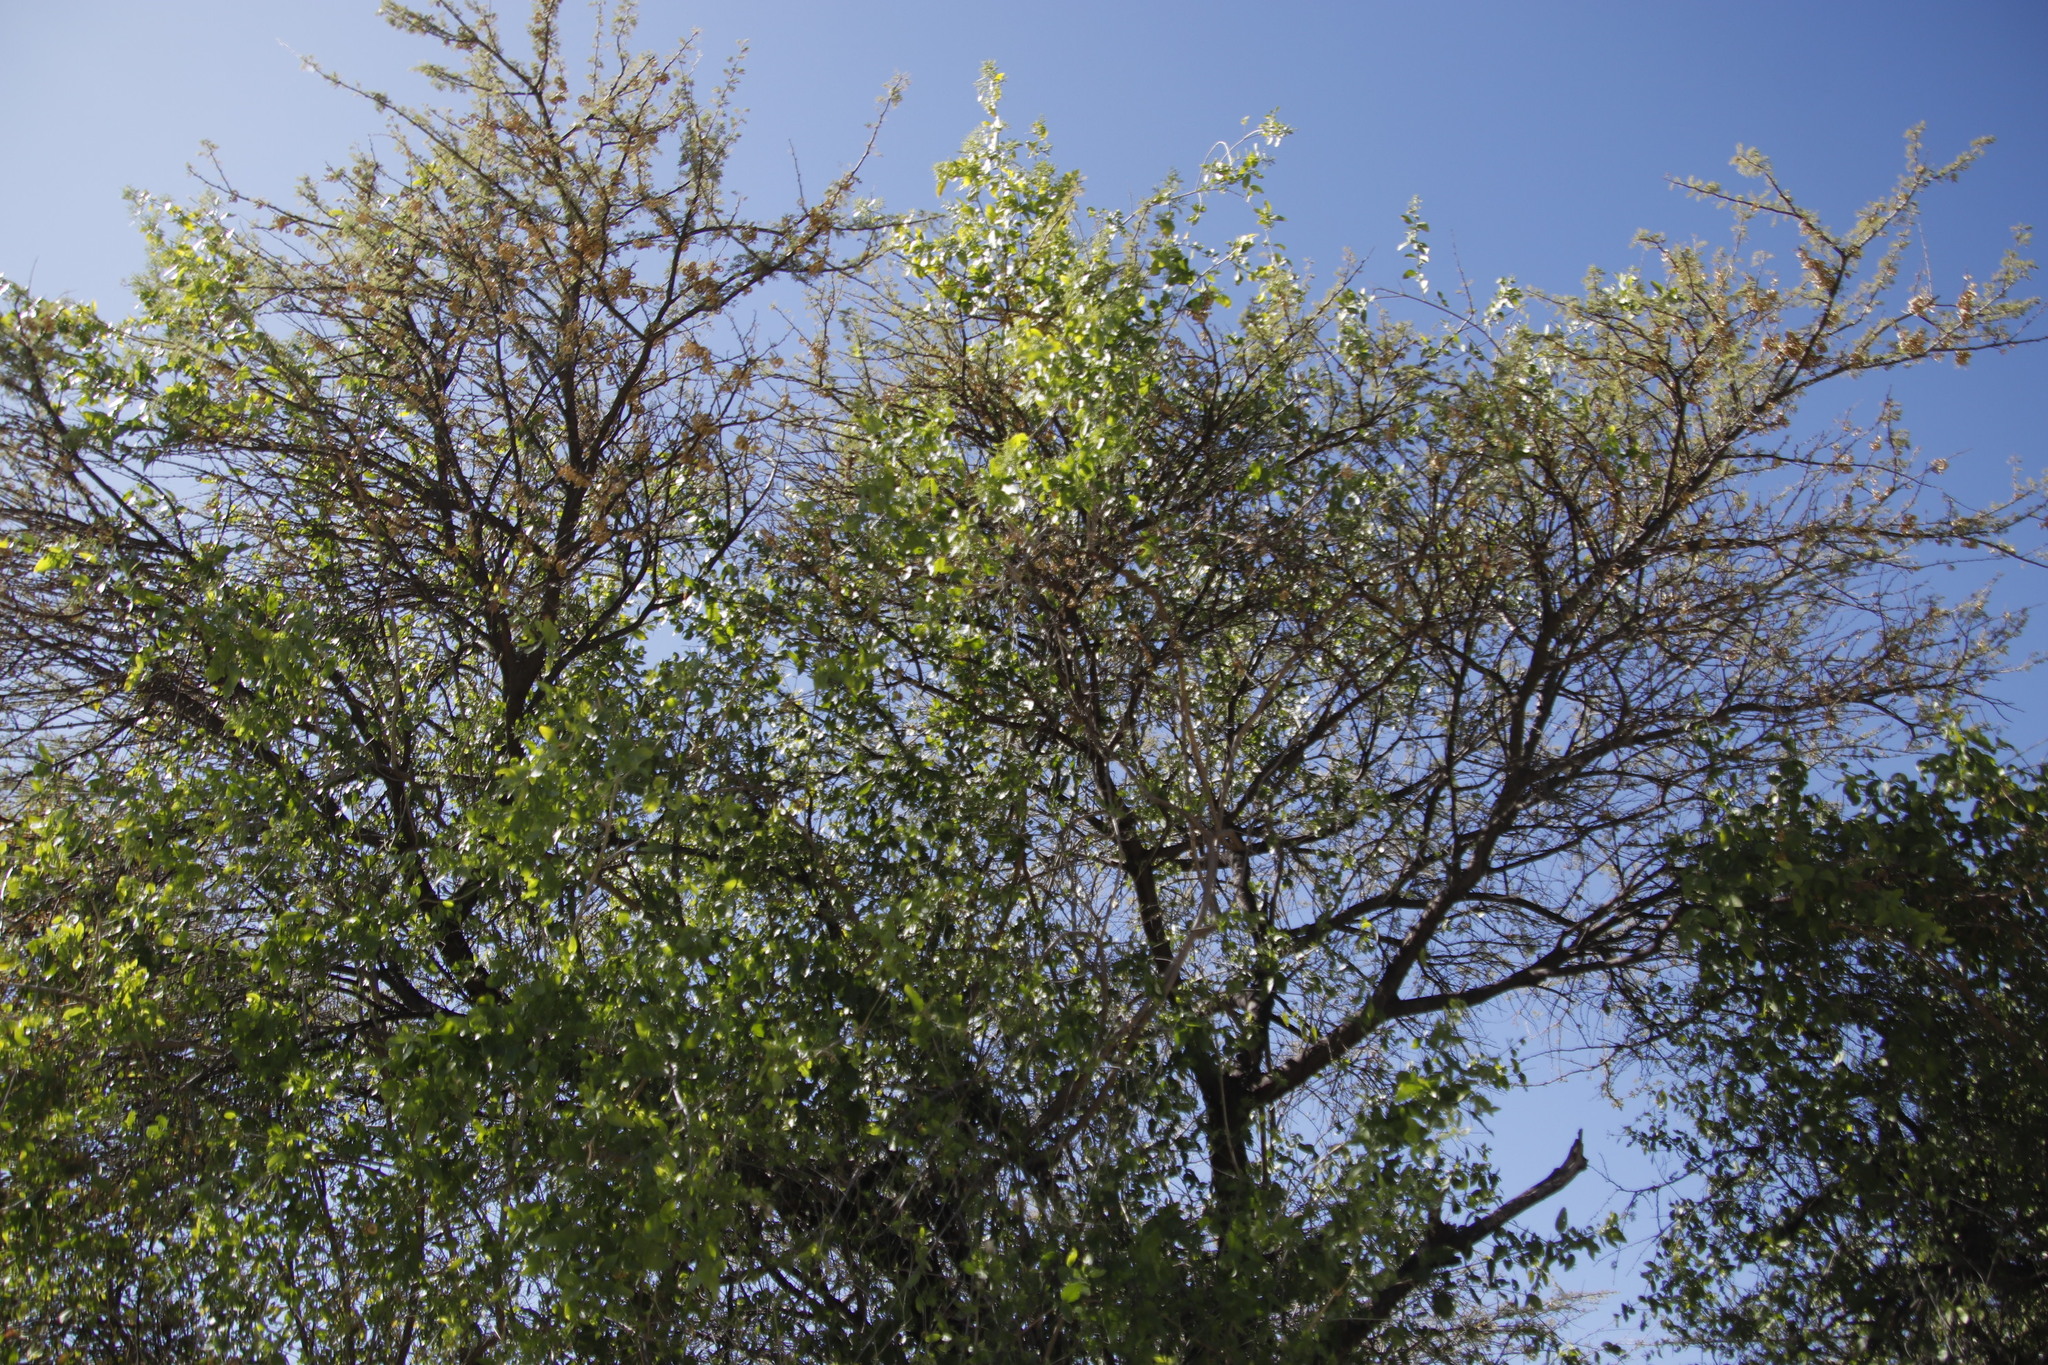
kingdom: Plantae
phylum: Tracheophyta
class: Magnoliopsida
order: Fabales
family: Fabaceae
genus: Vachellia
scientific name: Vachellia tortilis
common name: Umbrella thorn acacia
